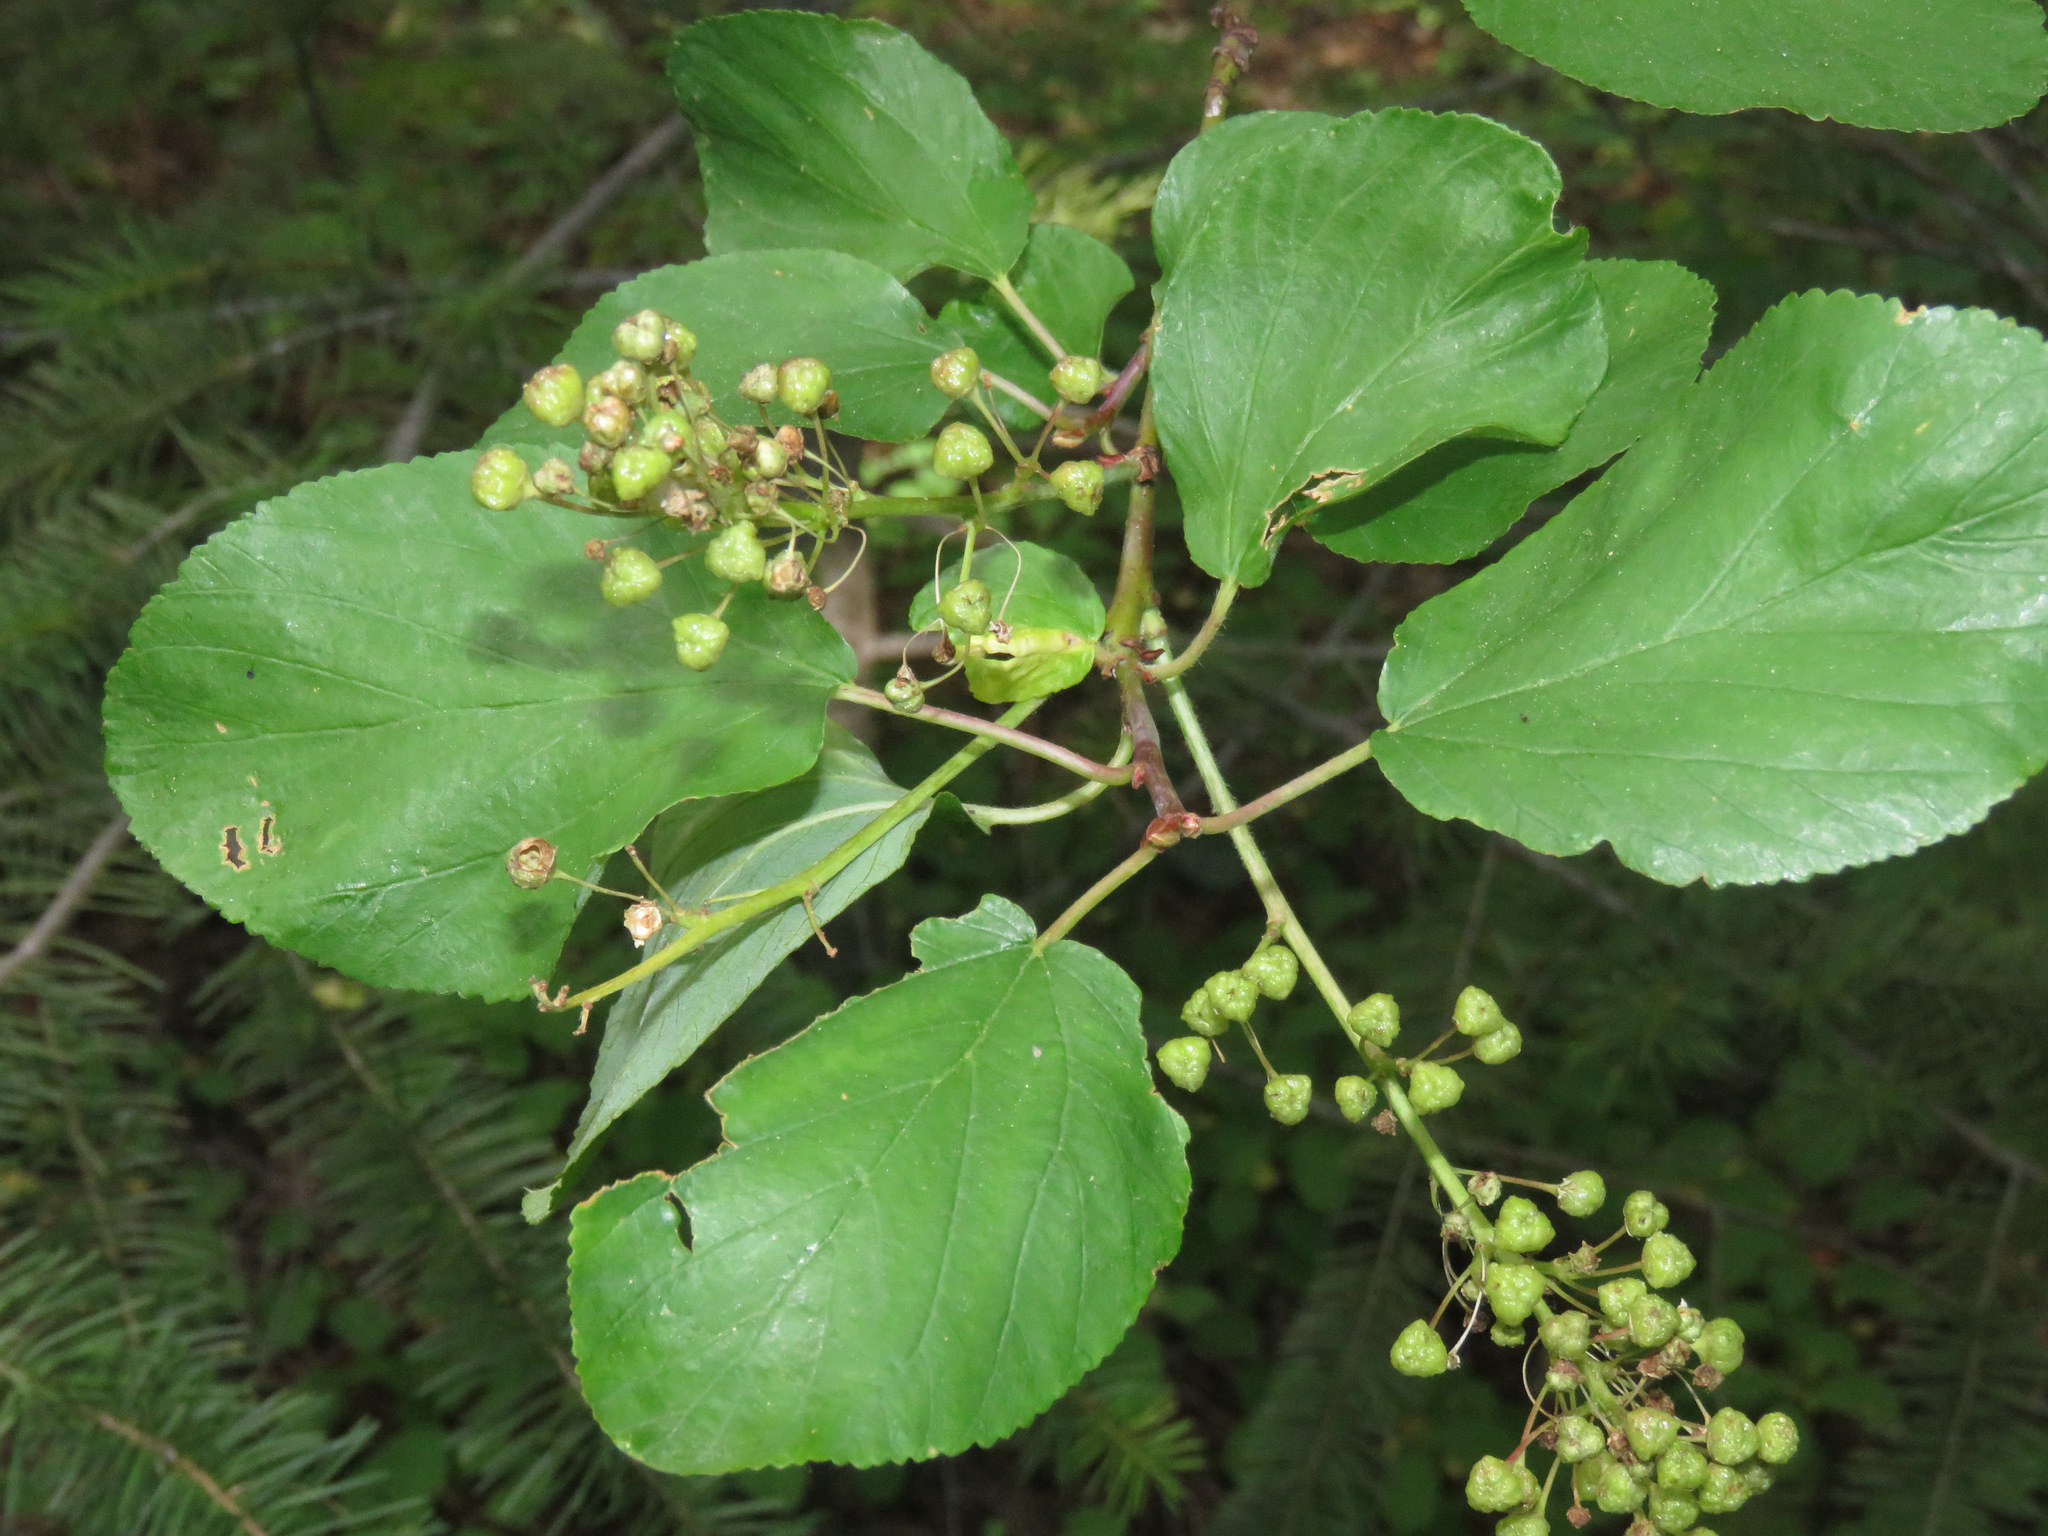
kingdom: Plantae
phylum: Tracheophyta
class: Magnoliopsida
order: Rosales
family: Rhamnaceae
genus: Ceanothus
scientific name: Ceanothus sanguineus
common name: Teatree
